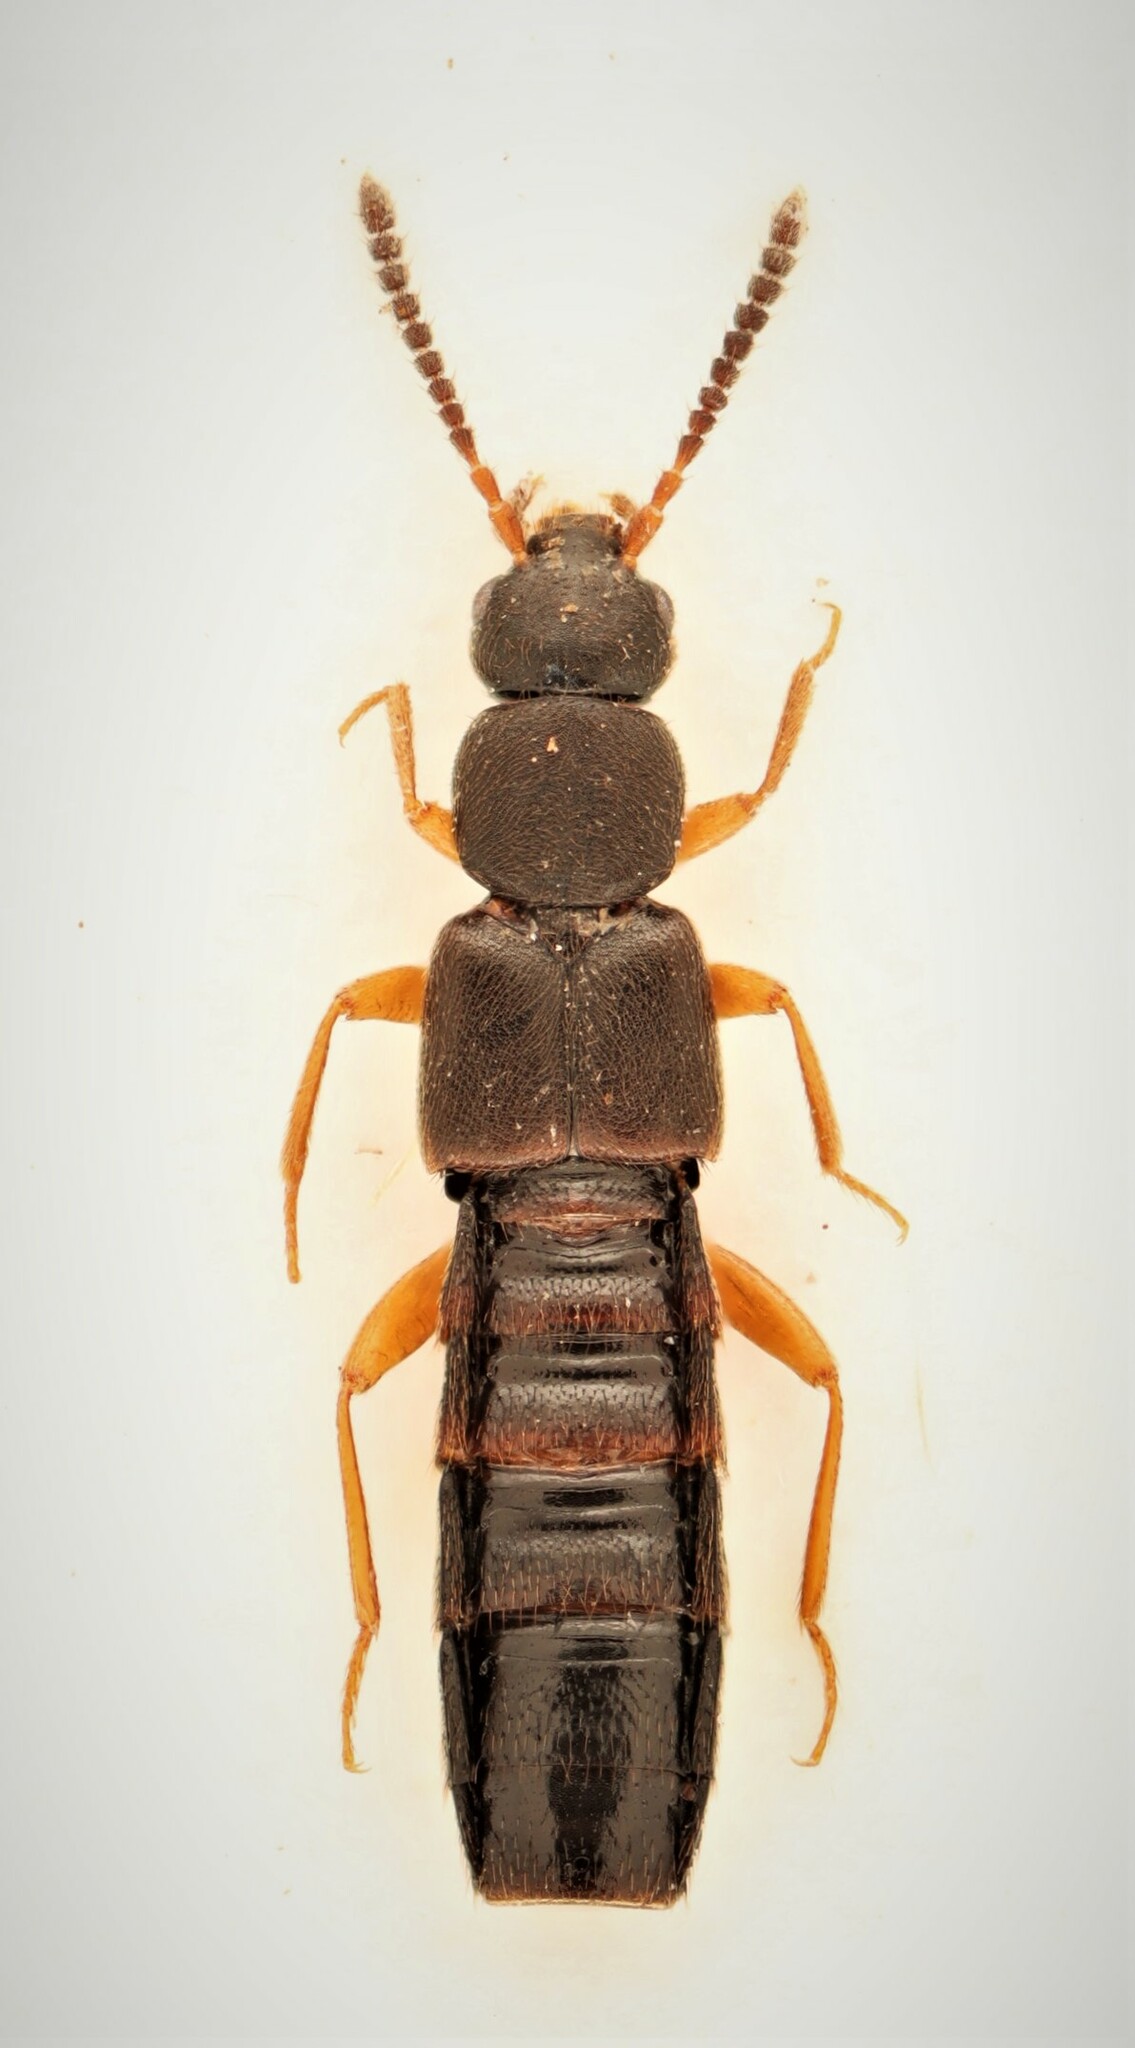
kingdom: Animalia
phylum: Arthropoda
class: Insecta
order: Coleoptera
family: Staphylinidae
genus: Dinaraea
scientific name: Dinaraea aequata
